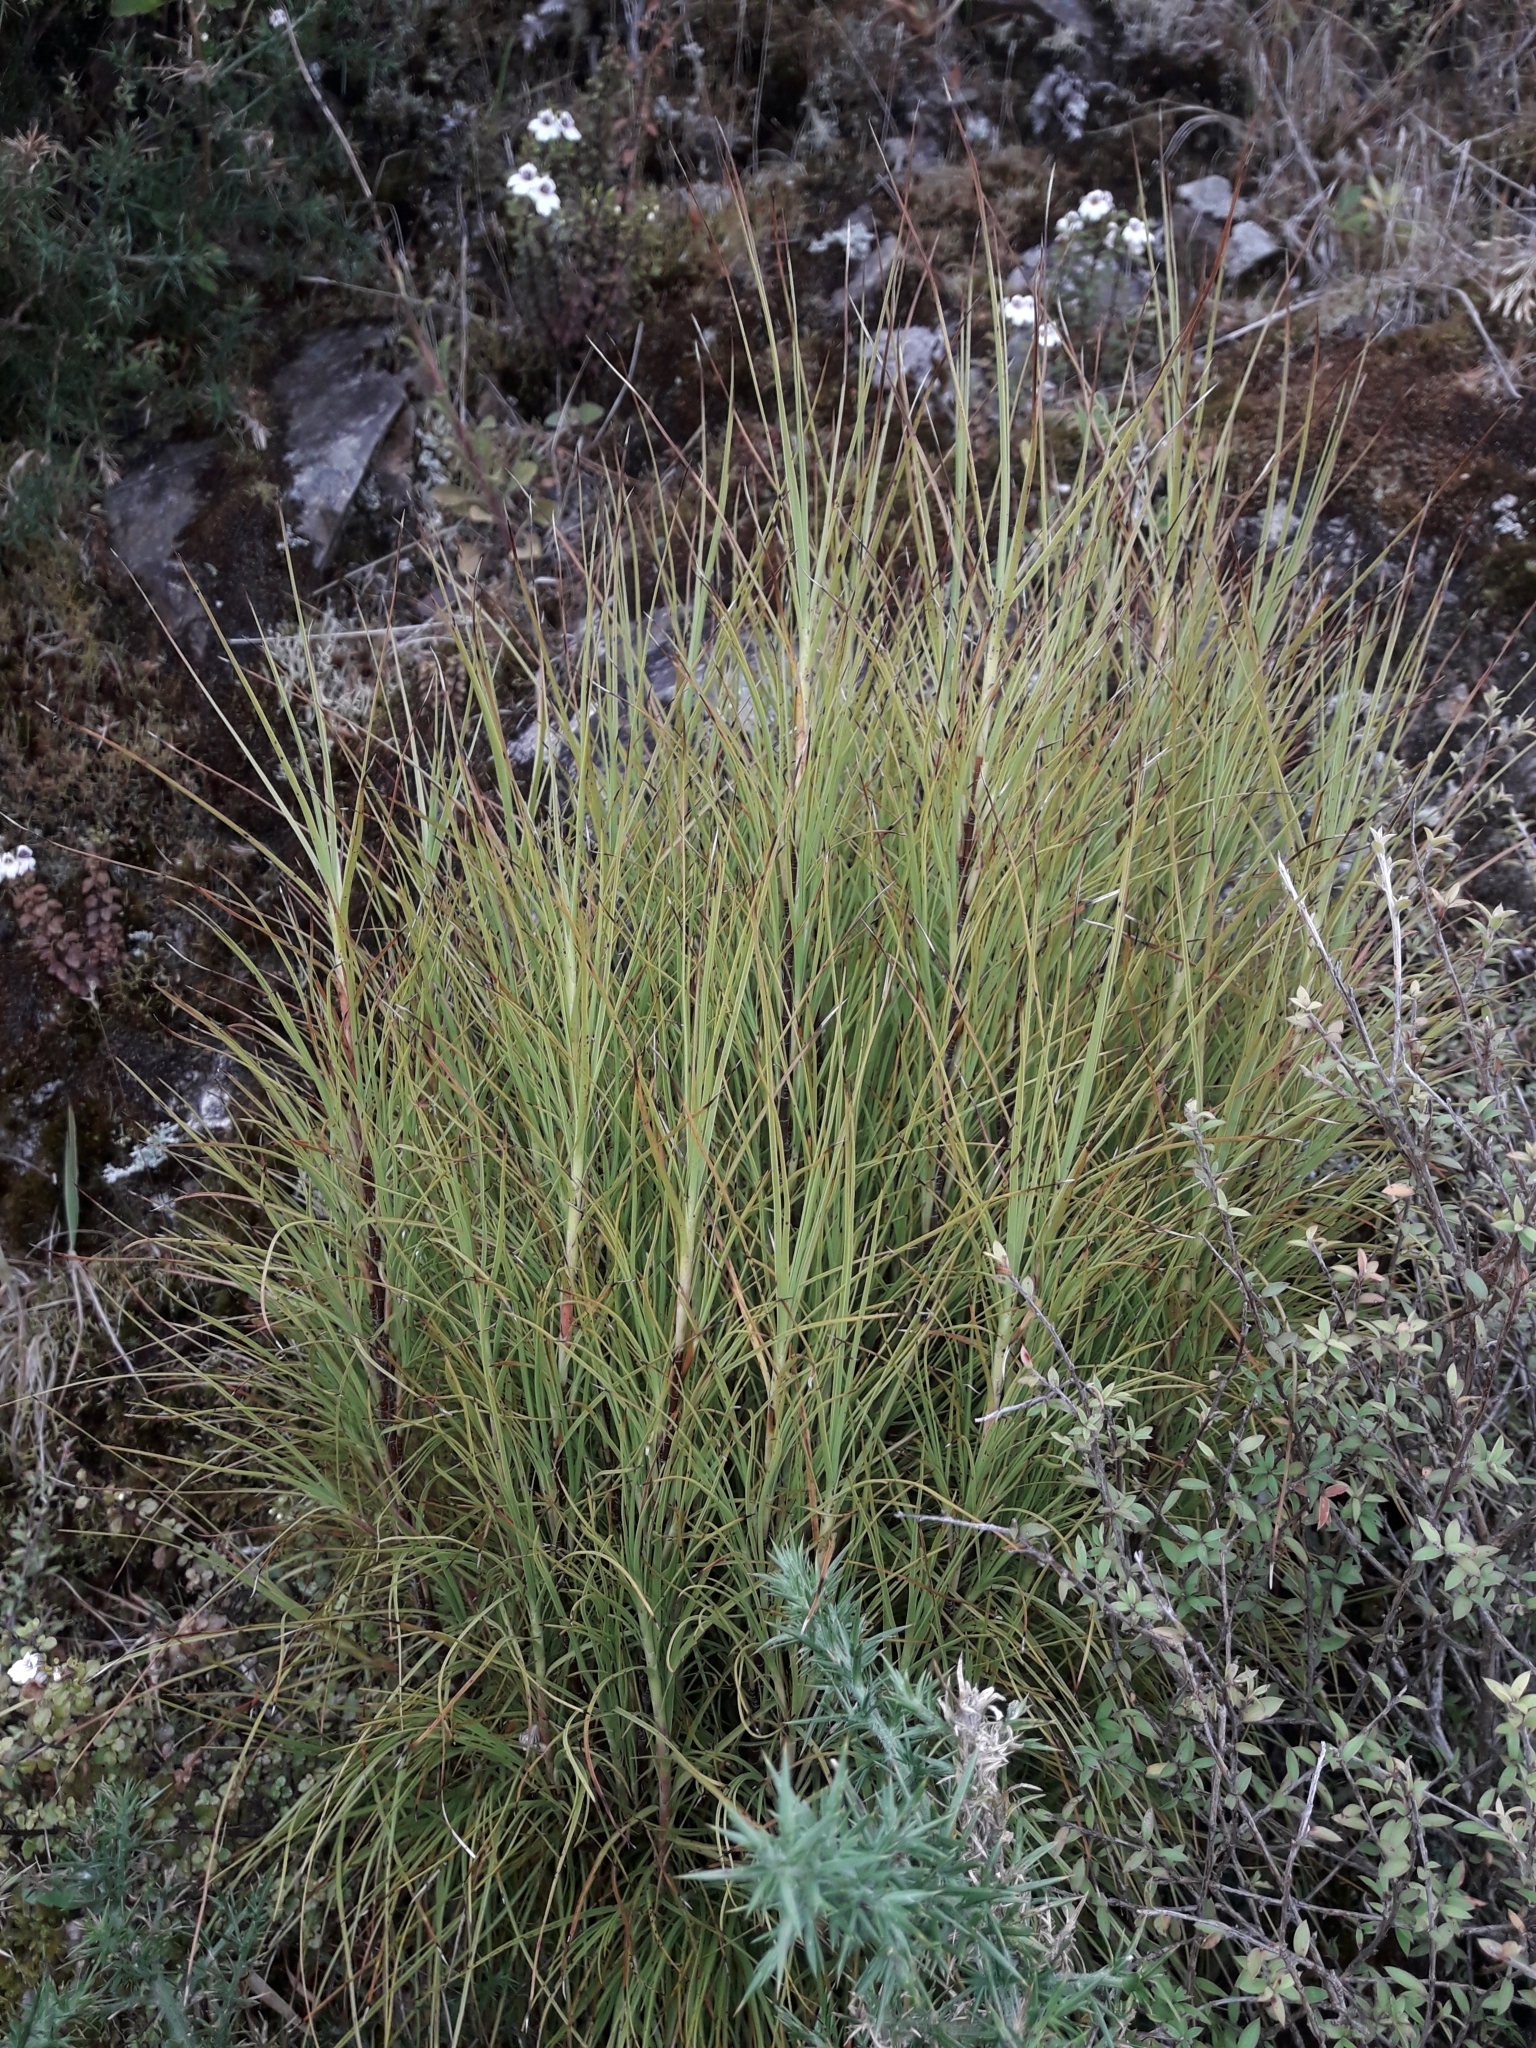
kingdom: Plantae
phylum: Tracheophyta
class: Magnoliopsida
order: Ericales
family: Ericaceae
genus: Dracophyllum
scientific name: Dracophyllum filifolium
